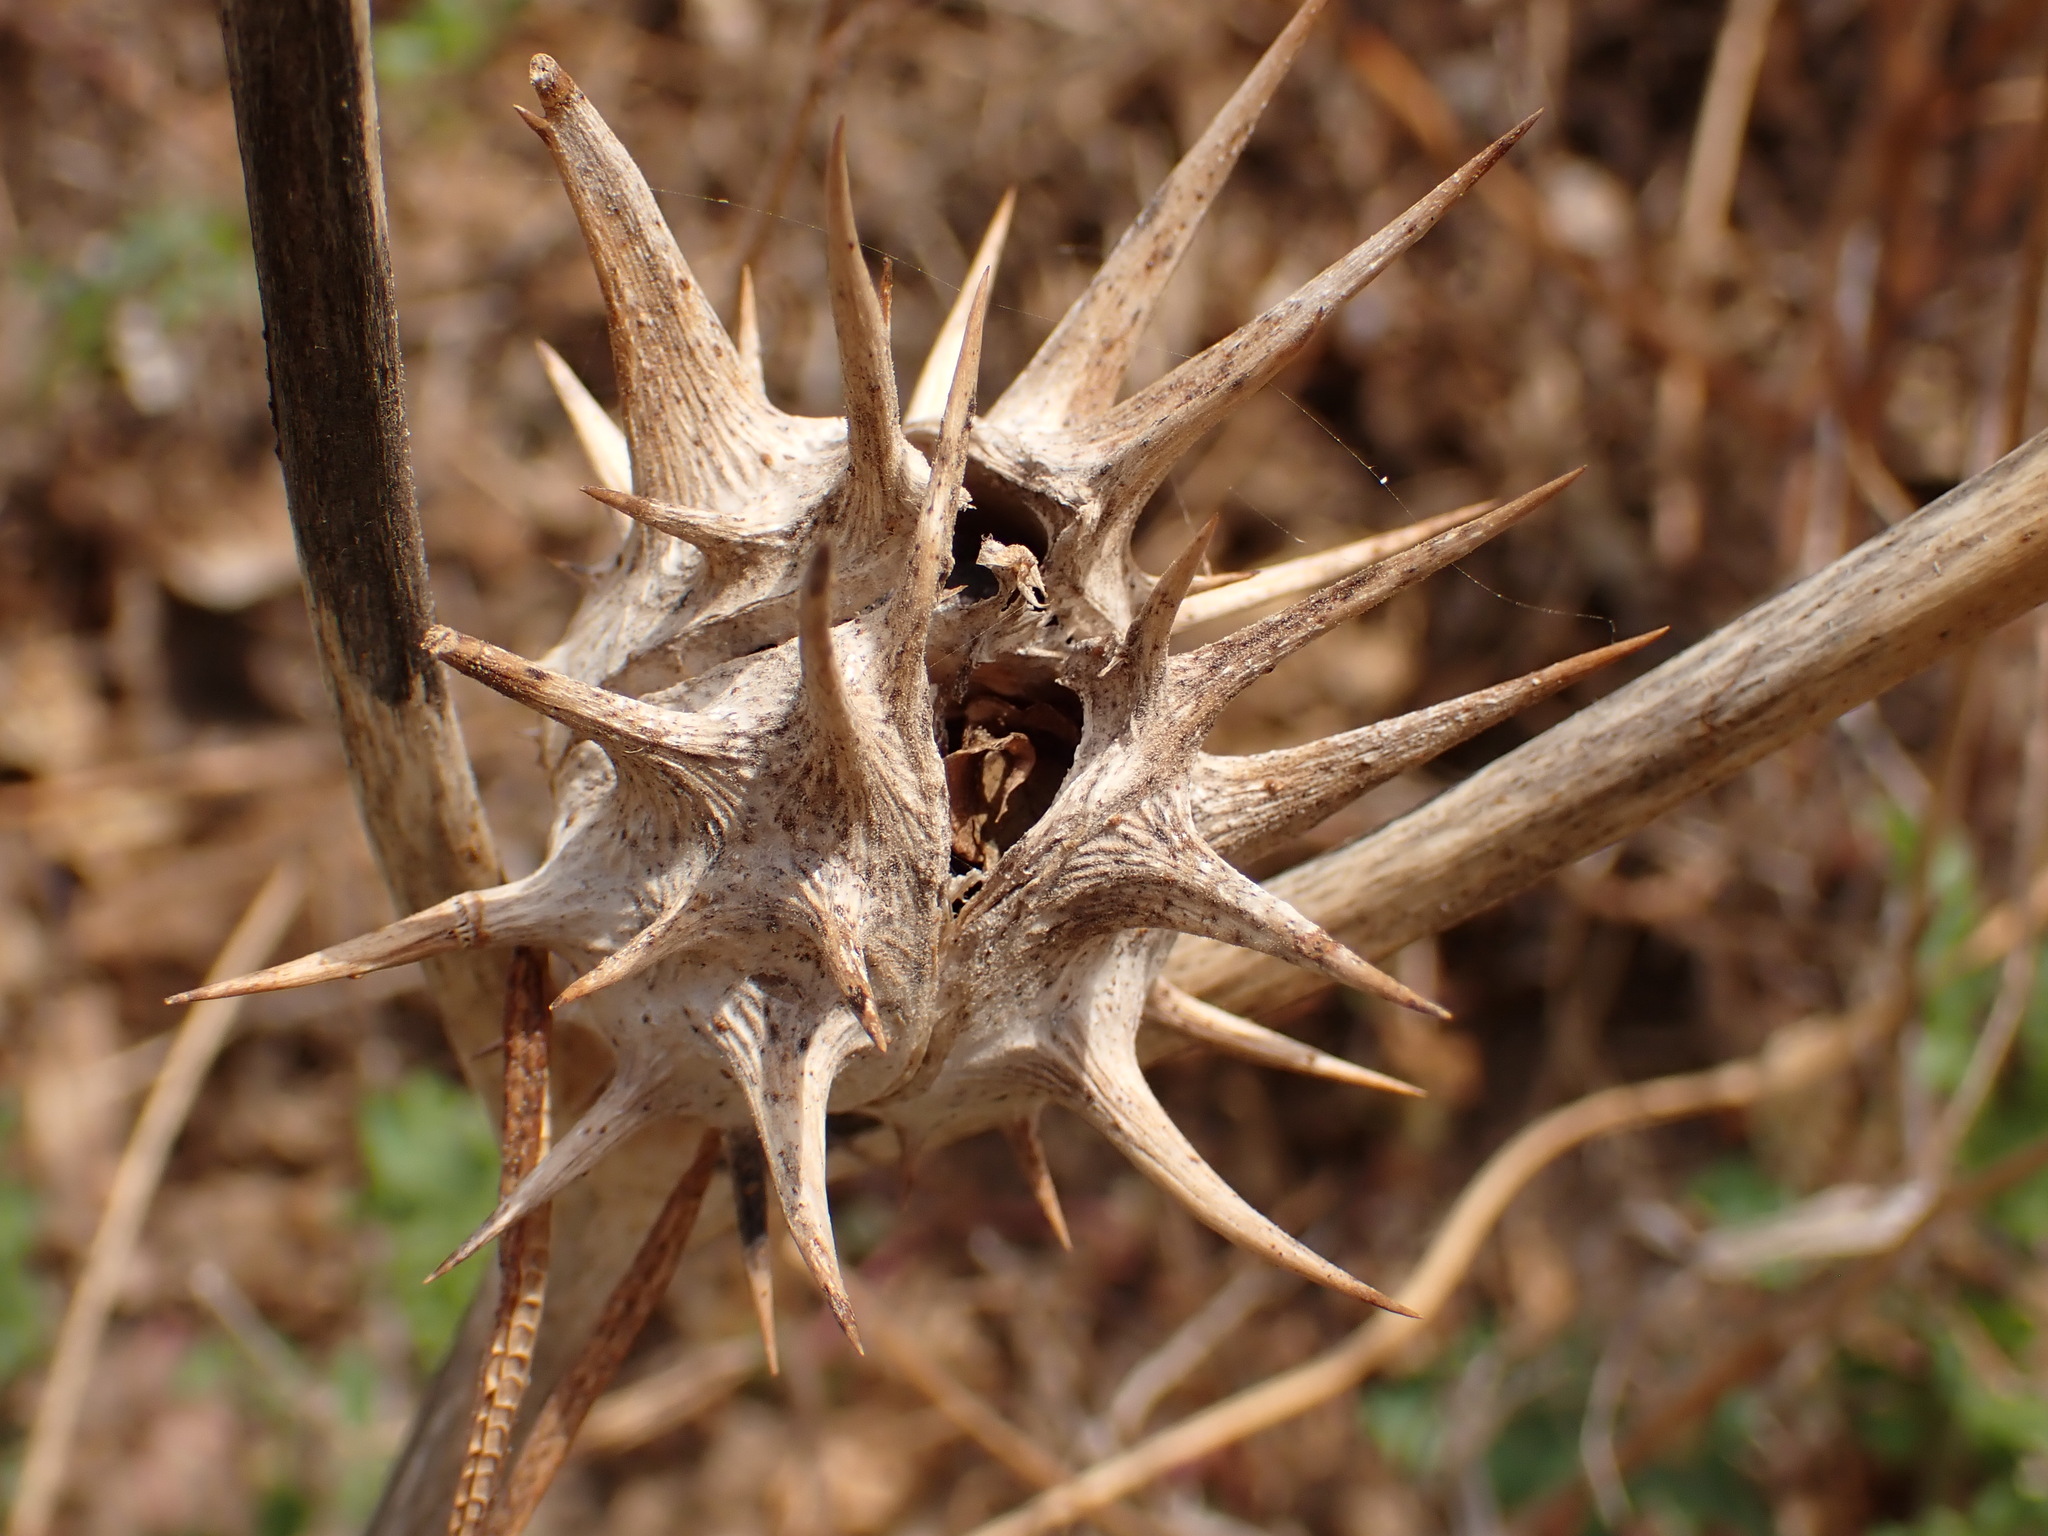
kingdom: Plantae
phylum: Tracheophyta
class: Magnoliopsida
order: Solanales
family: Solanaceae
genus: Datura
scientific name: Datura ferox
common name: Angel's-trumpets
